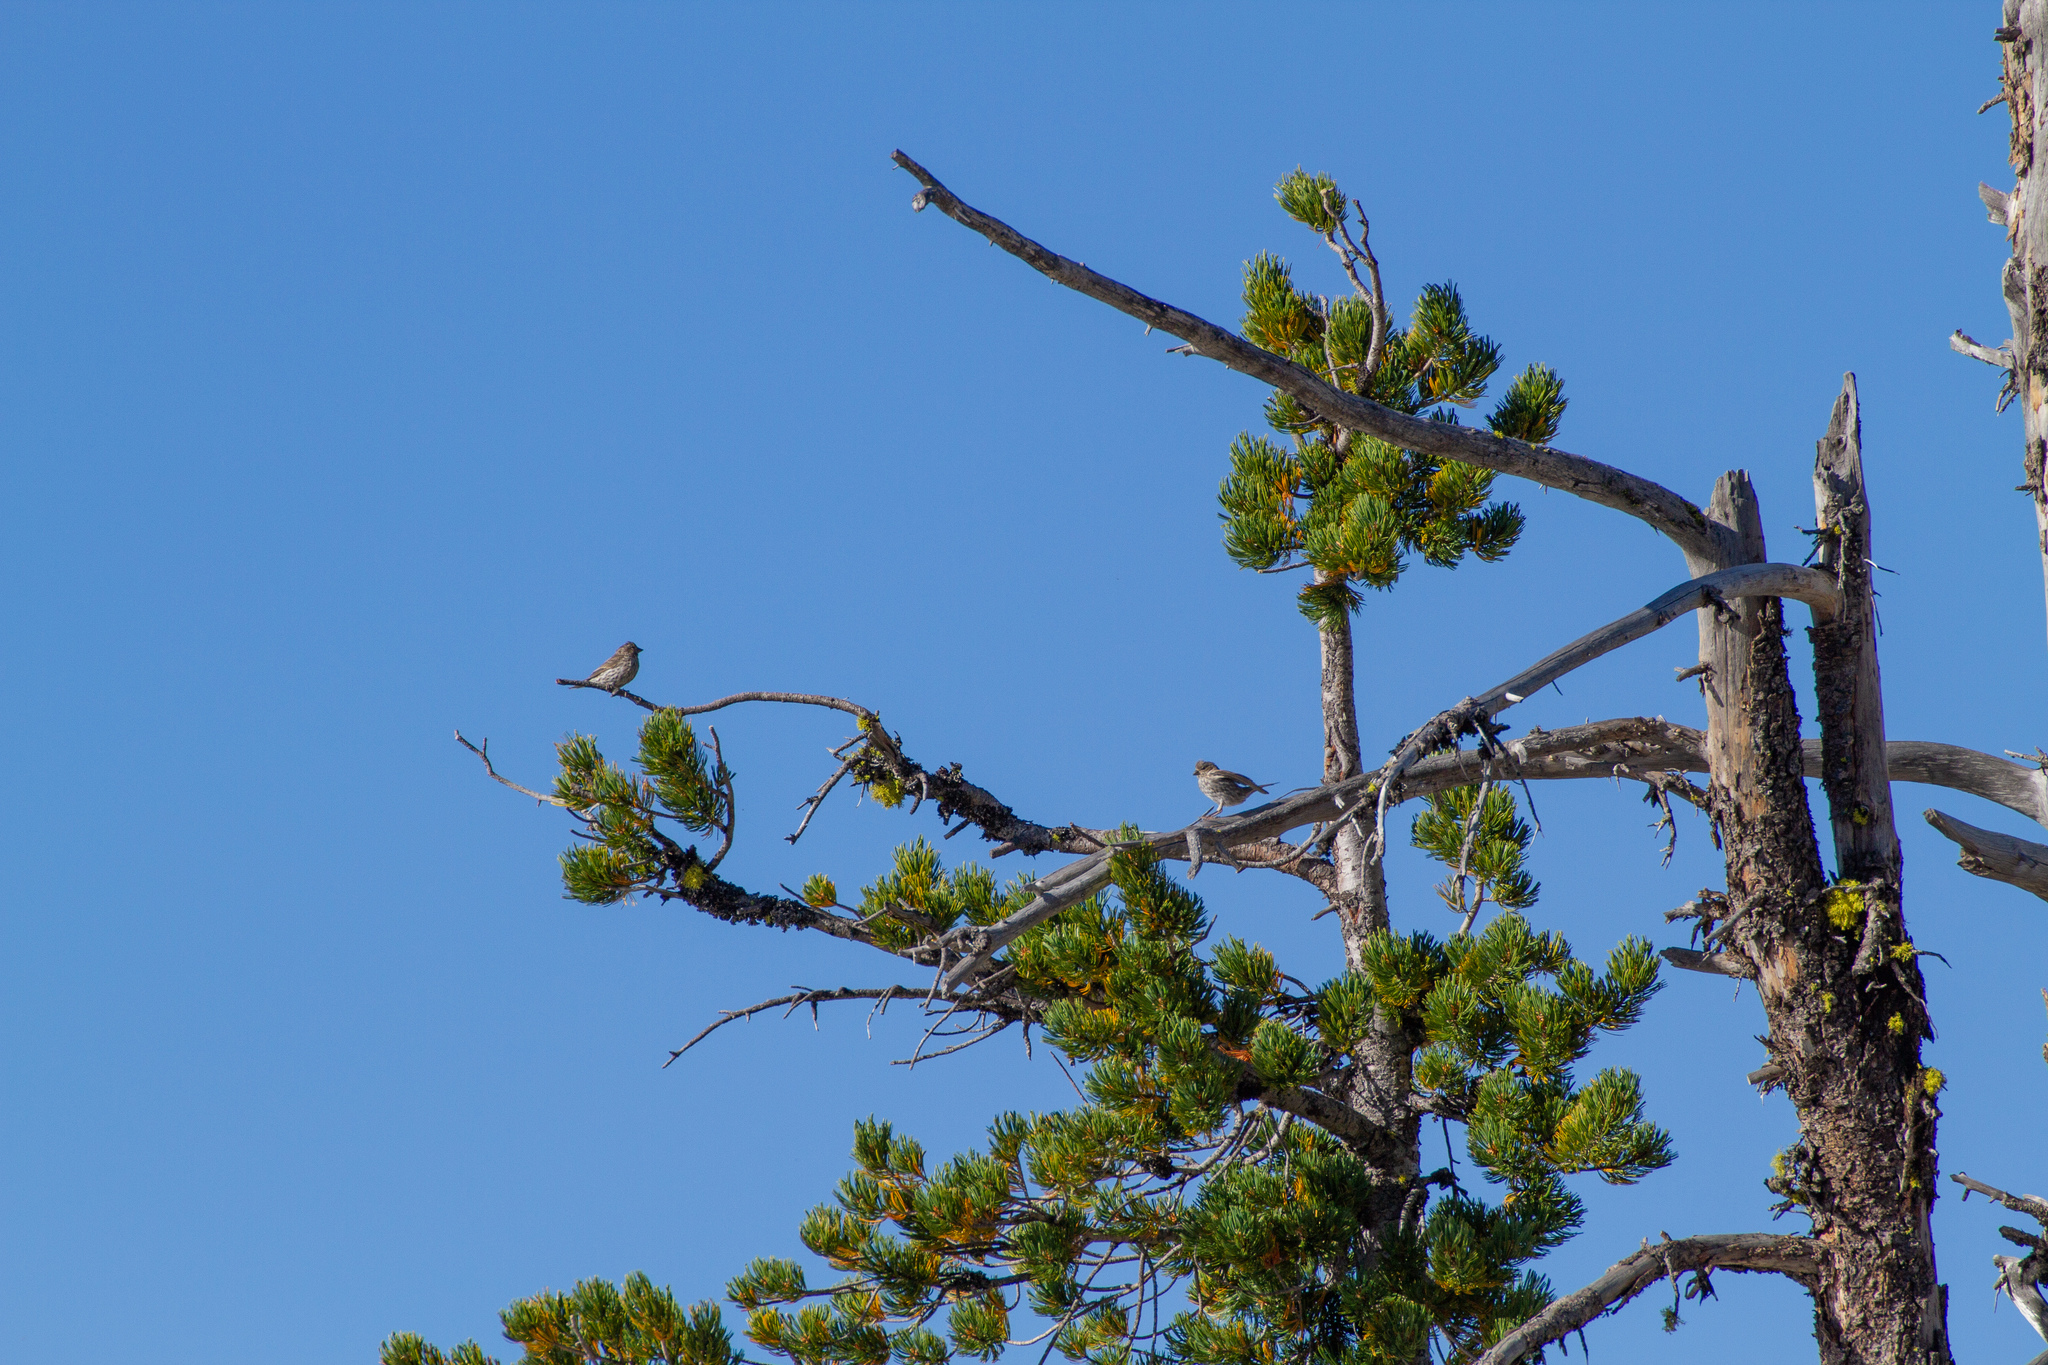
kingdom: Animalia
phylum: Chordata
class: Aves
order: Passeriformes
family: Fringillidae
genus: Haemorhous
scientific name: Haemorhous mexicanus
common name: House finch
